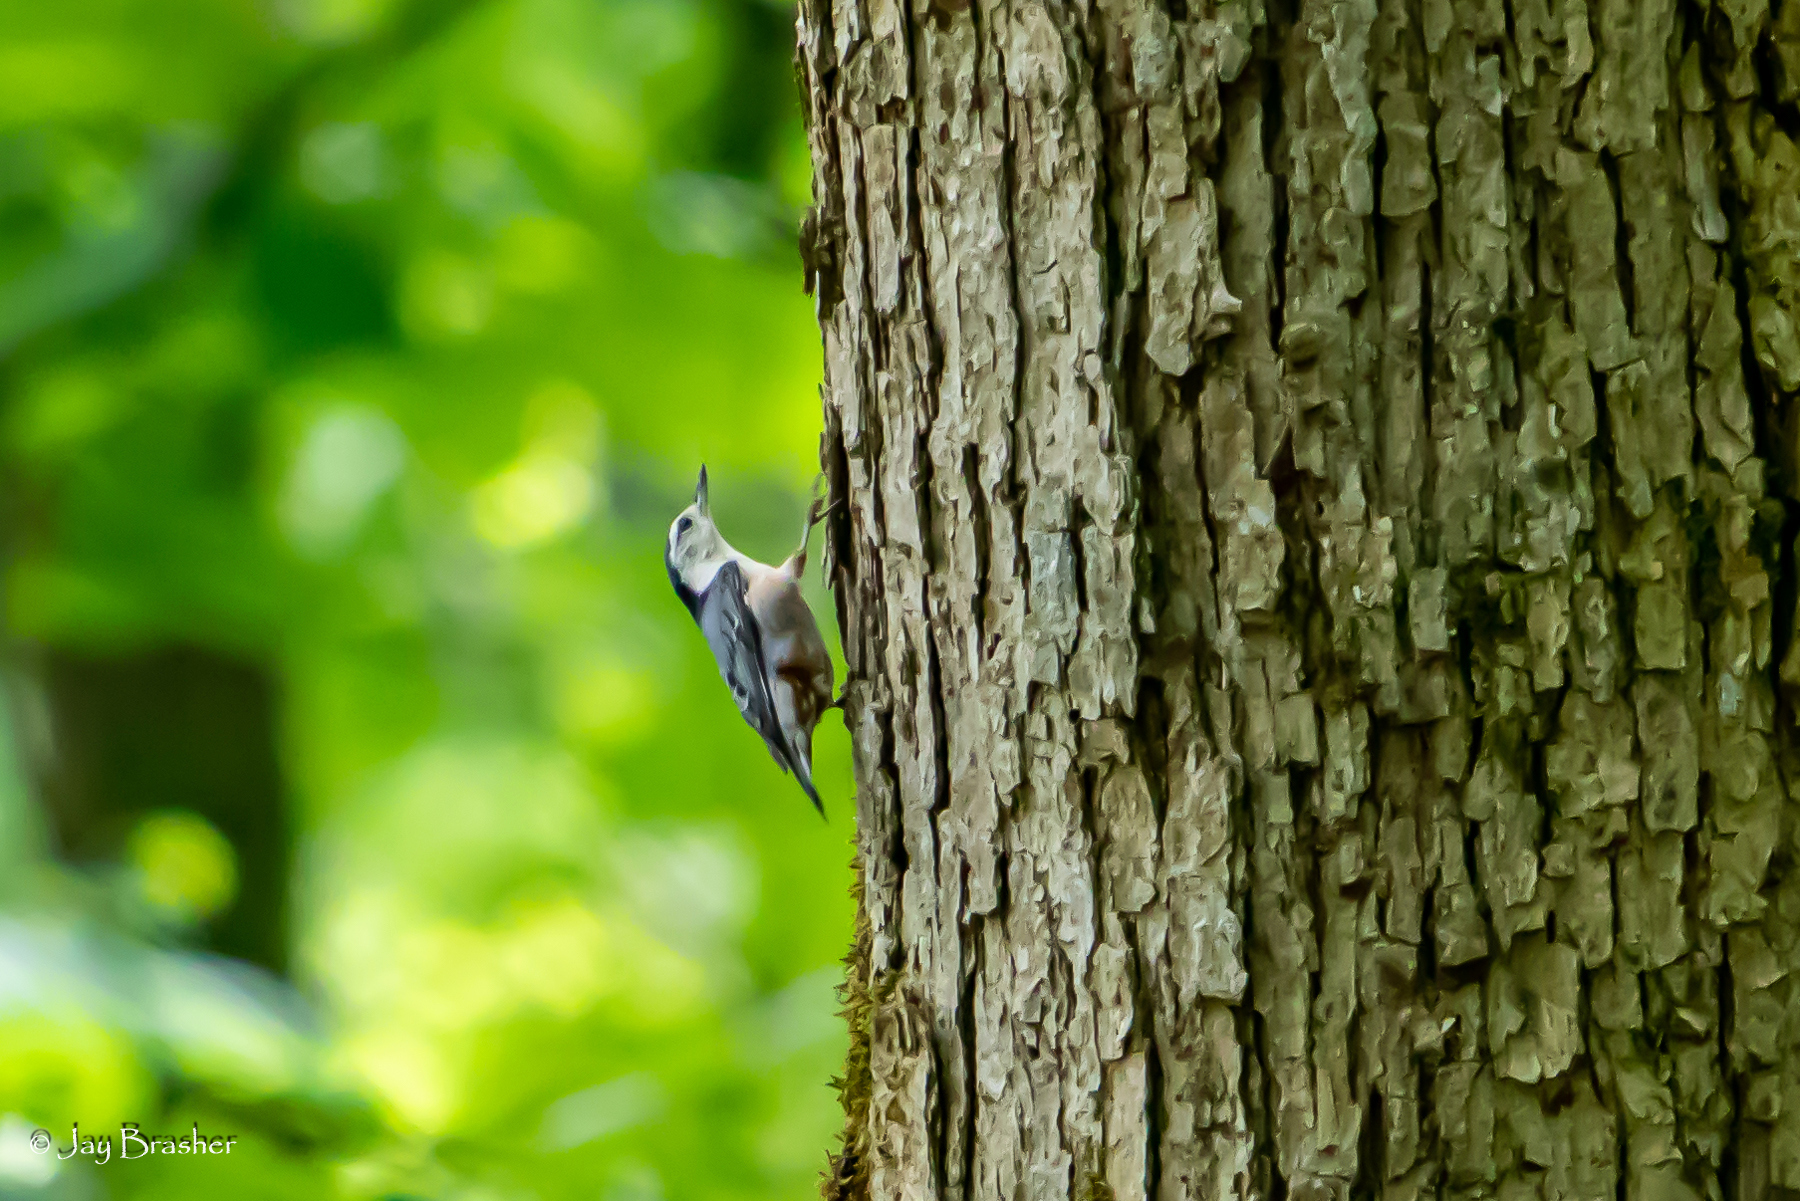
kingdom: Animalia
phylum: Chordata
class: Aves
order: Passeriformes
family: Sittidae
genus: Sitta
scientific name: Sitta carolinensis
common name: White-breasted nuthatch
